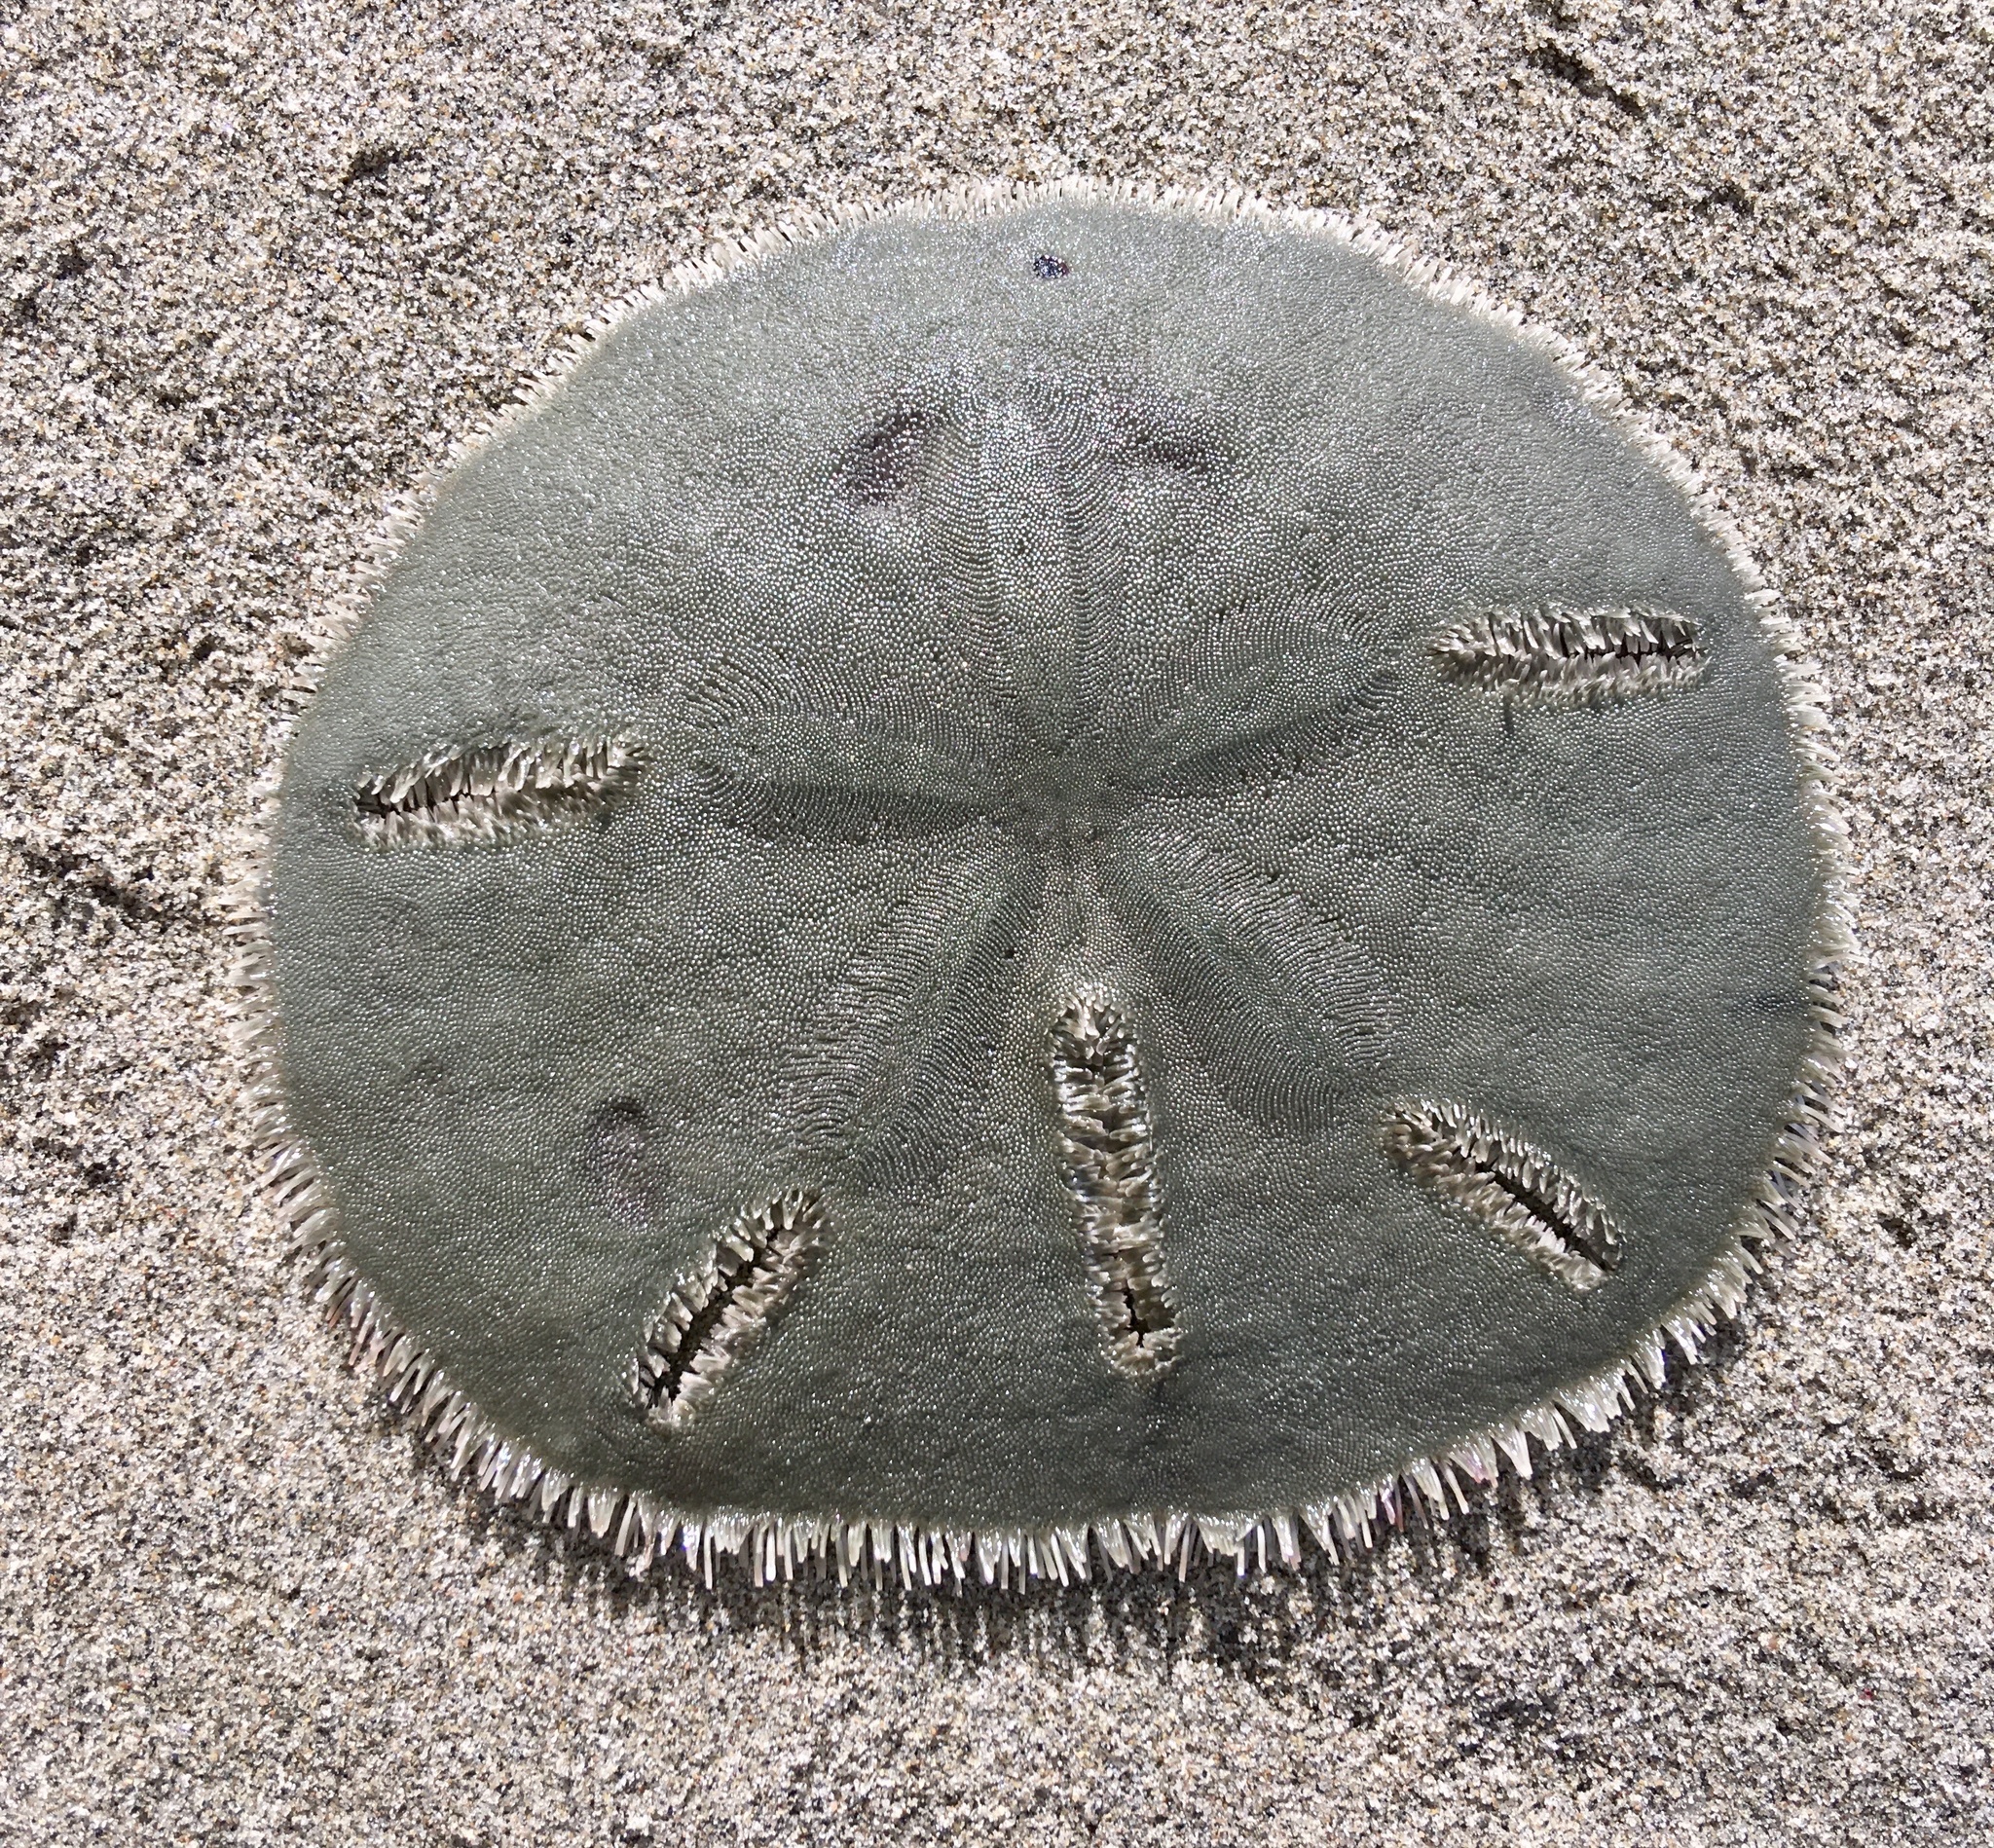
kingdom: Animalia
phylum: Echinodermata
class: Echinoidea
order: Echinolampadacea
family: Mellitidae
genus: Mellita
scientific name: Mellita quinquiesperforata
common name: Sand dollar
